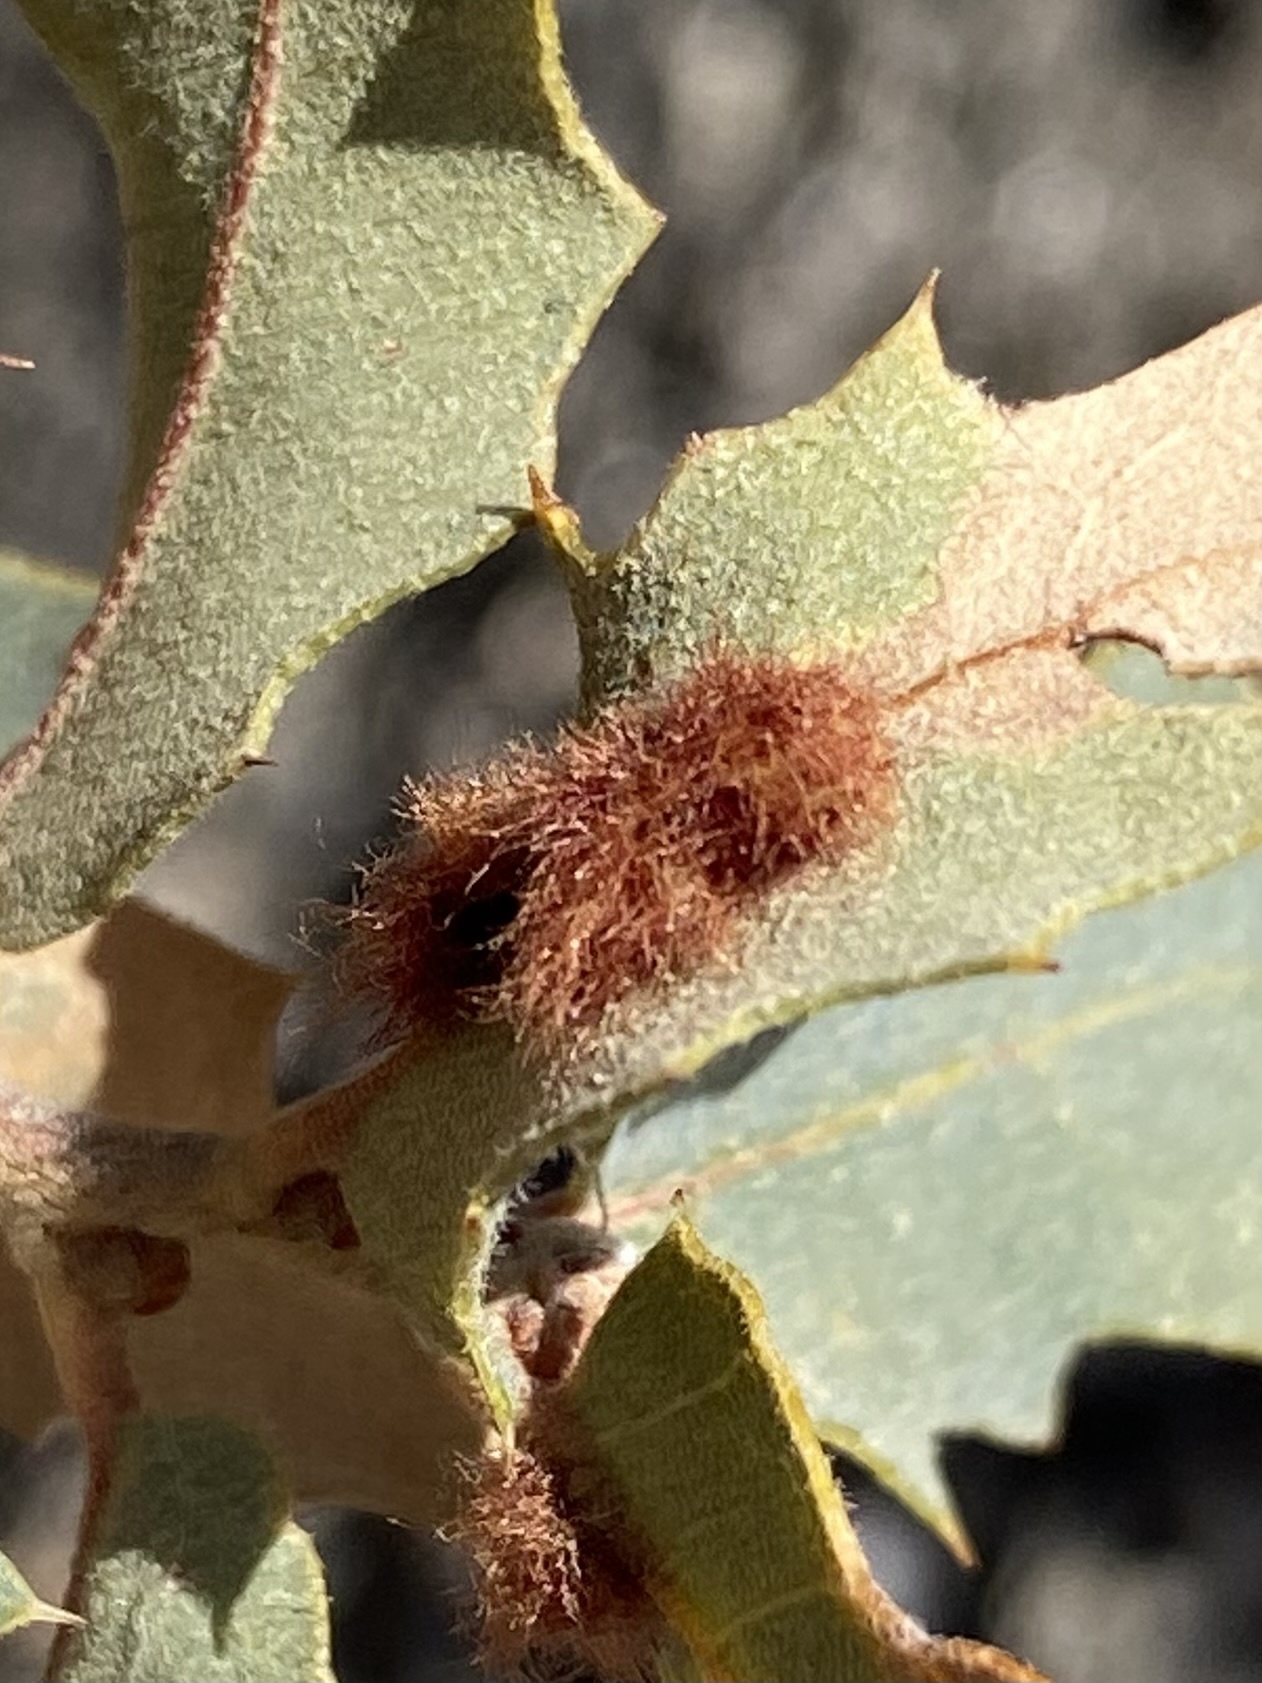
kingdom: Animalia
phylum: Arthropoda
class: Insecta
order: Hymenoptera
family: Cynipidae
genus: Neuroterus
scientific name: Neuroterus aliceae
